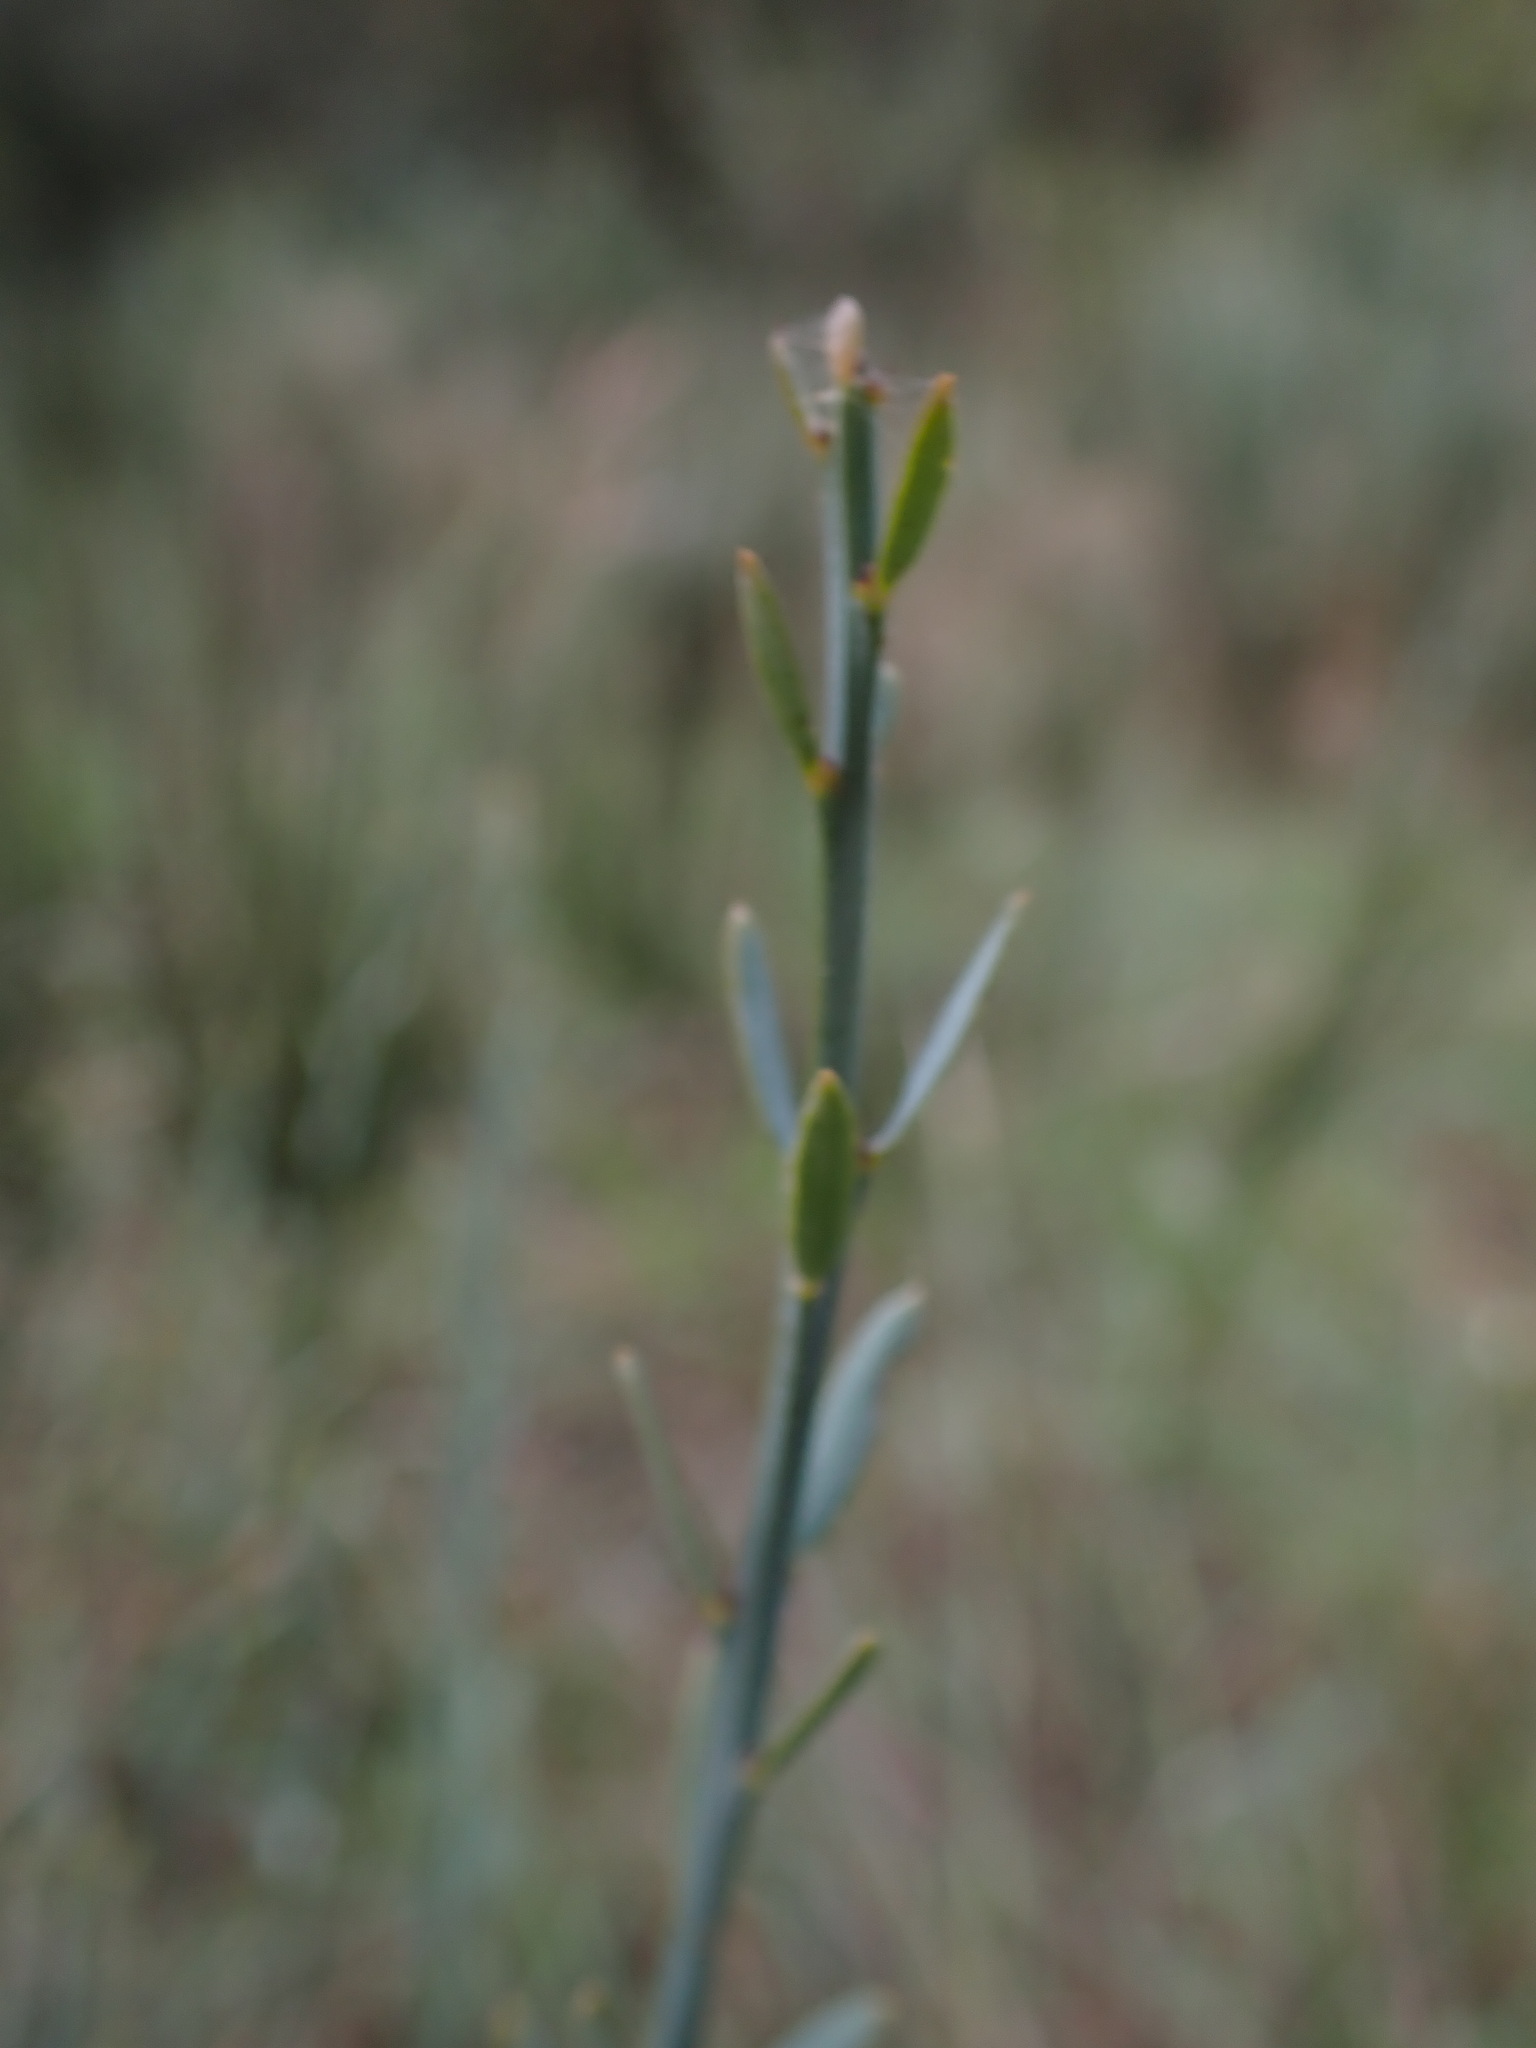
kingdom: Plantae
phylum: Tracheophyta
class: Magnoliopsida
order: Santalales
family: Santalaceae
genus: Osyris
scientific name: Osyris alba
